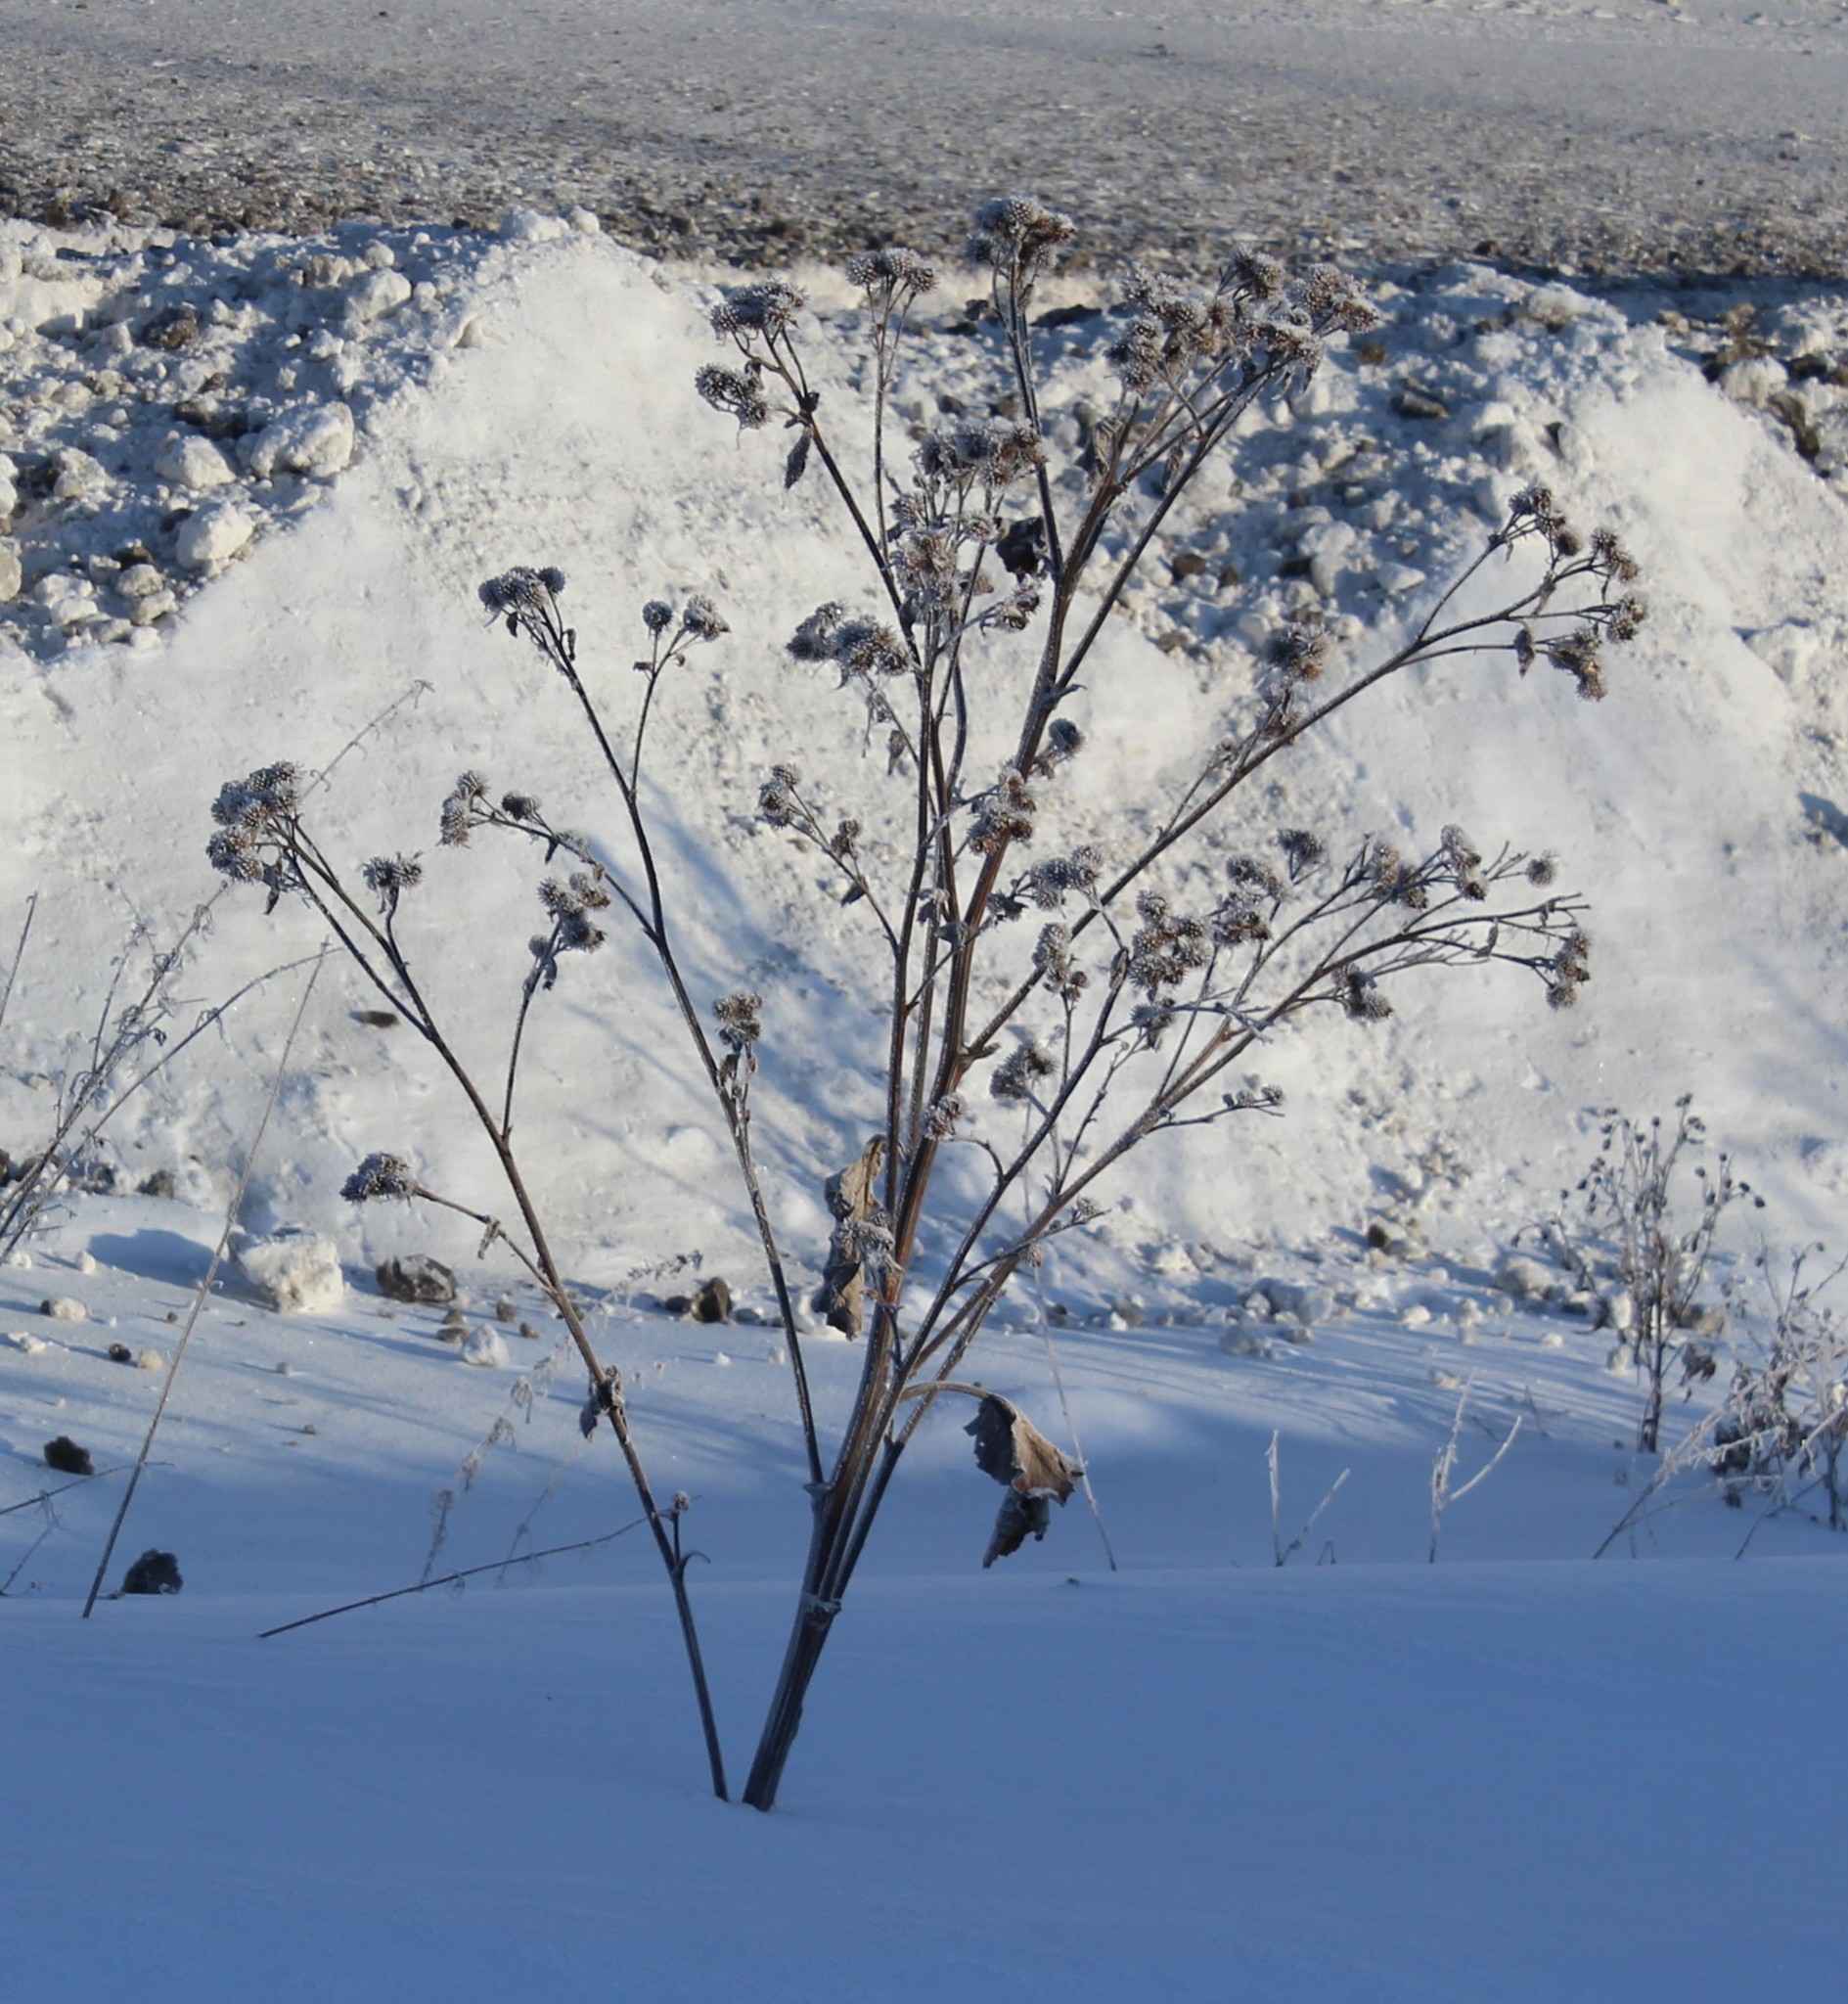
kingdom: Plantae
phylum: Tracheophyta
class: Magnoliopsida
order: Asterales
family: Asteraceae
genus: Arctium
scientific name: Arctium tomentosum
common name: Woolly burdock
